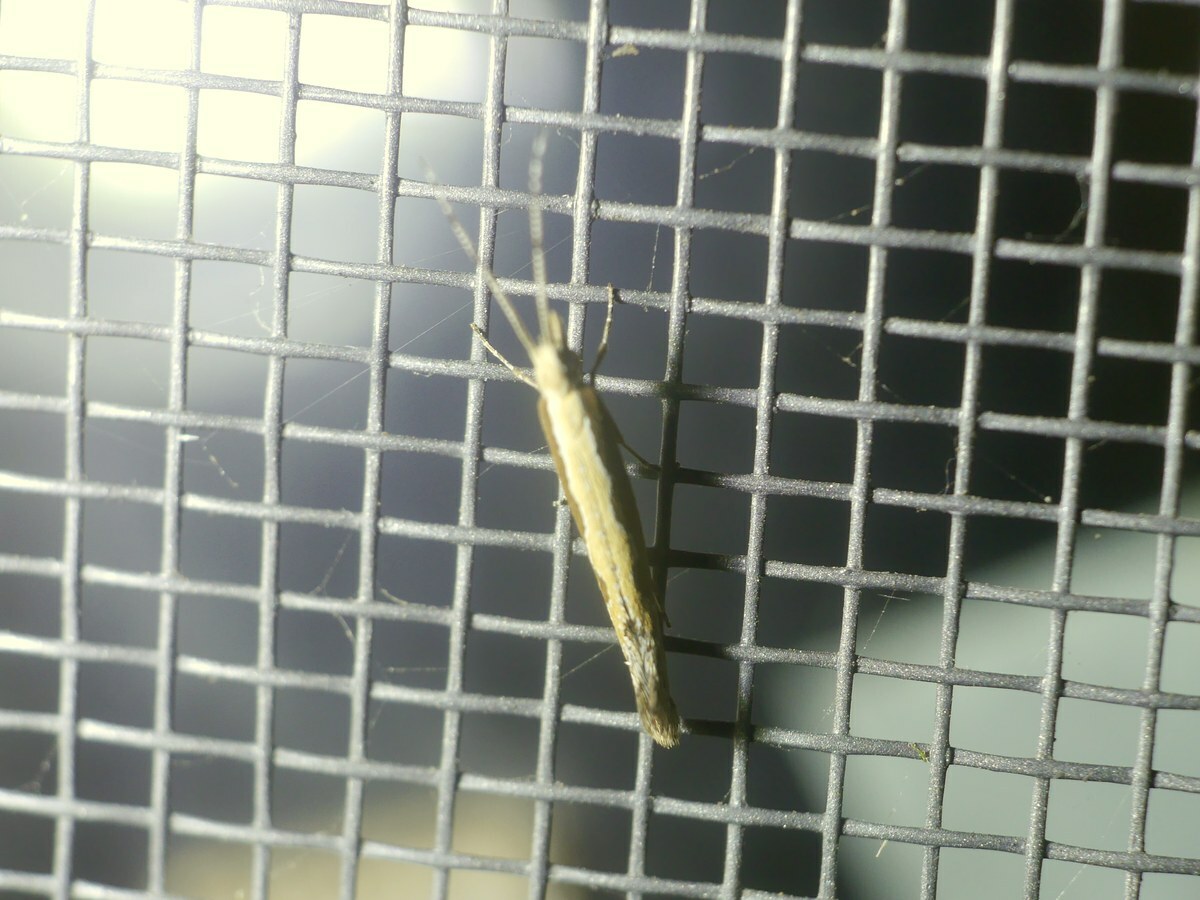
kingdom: Animalia
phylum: Arthropoda
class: Insecta
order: Lepidoptera
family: Plutellidae
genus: Plutella
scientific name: Plutella xylostella
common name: Diamond-back moth
